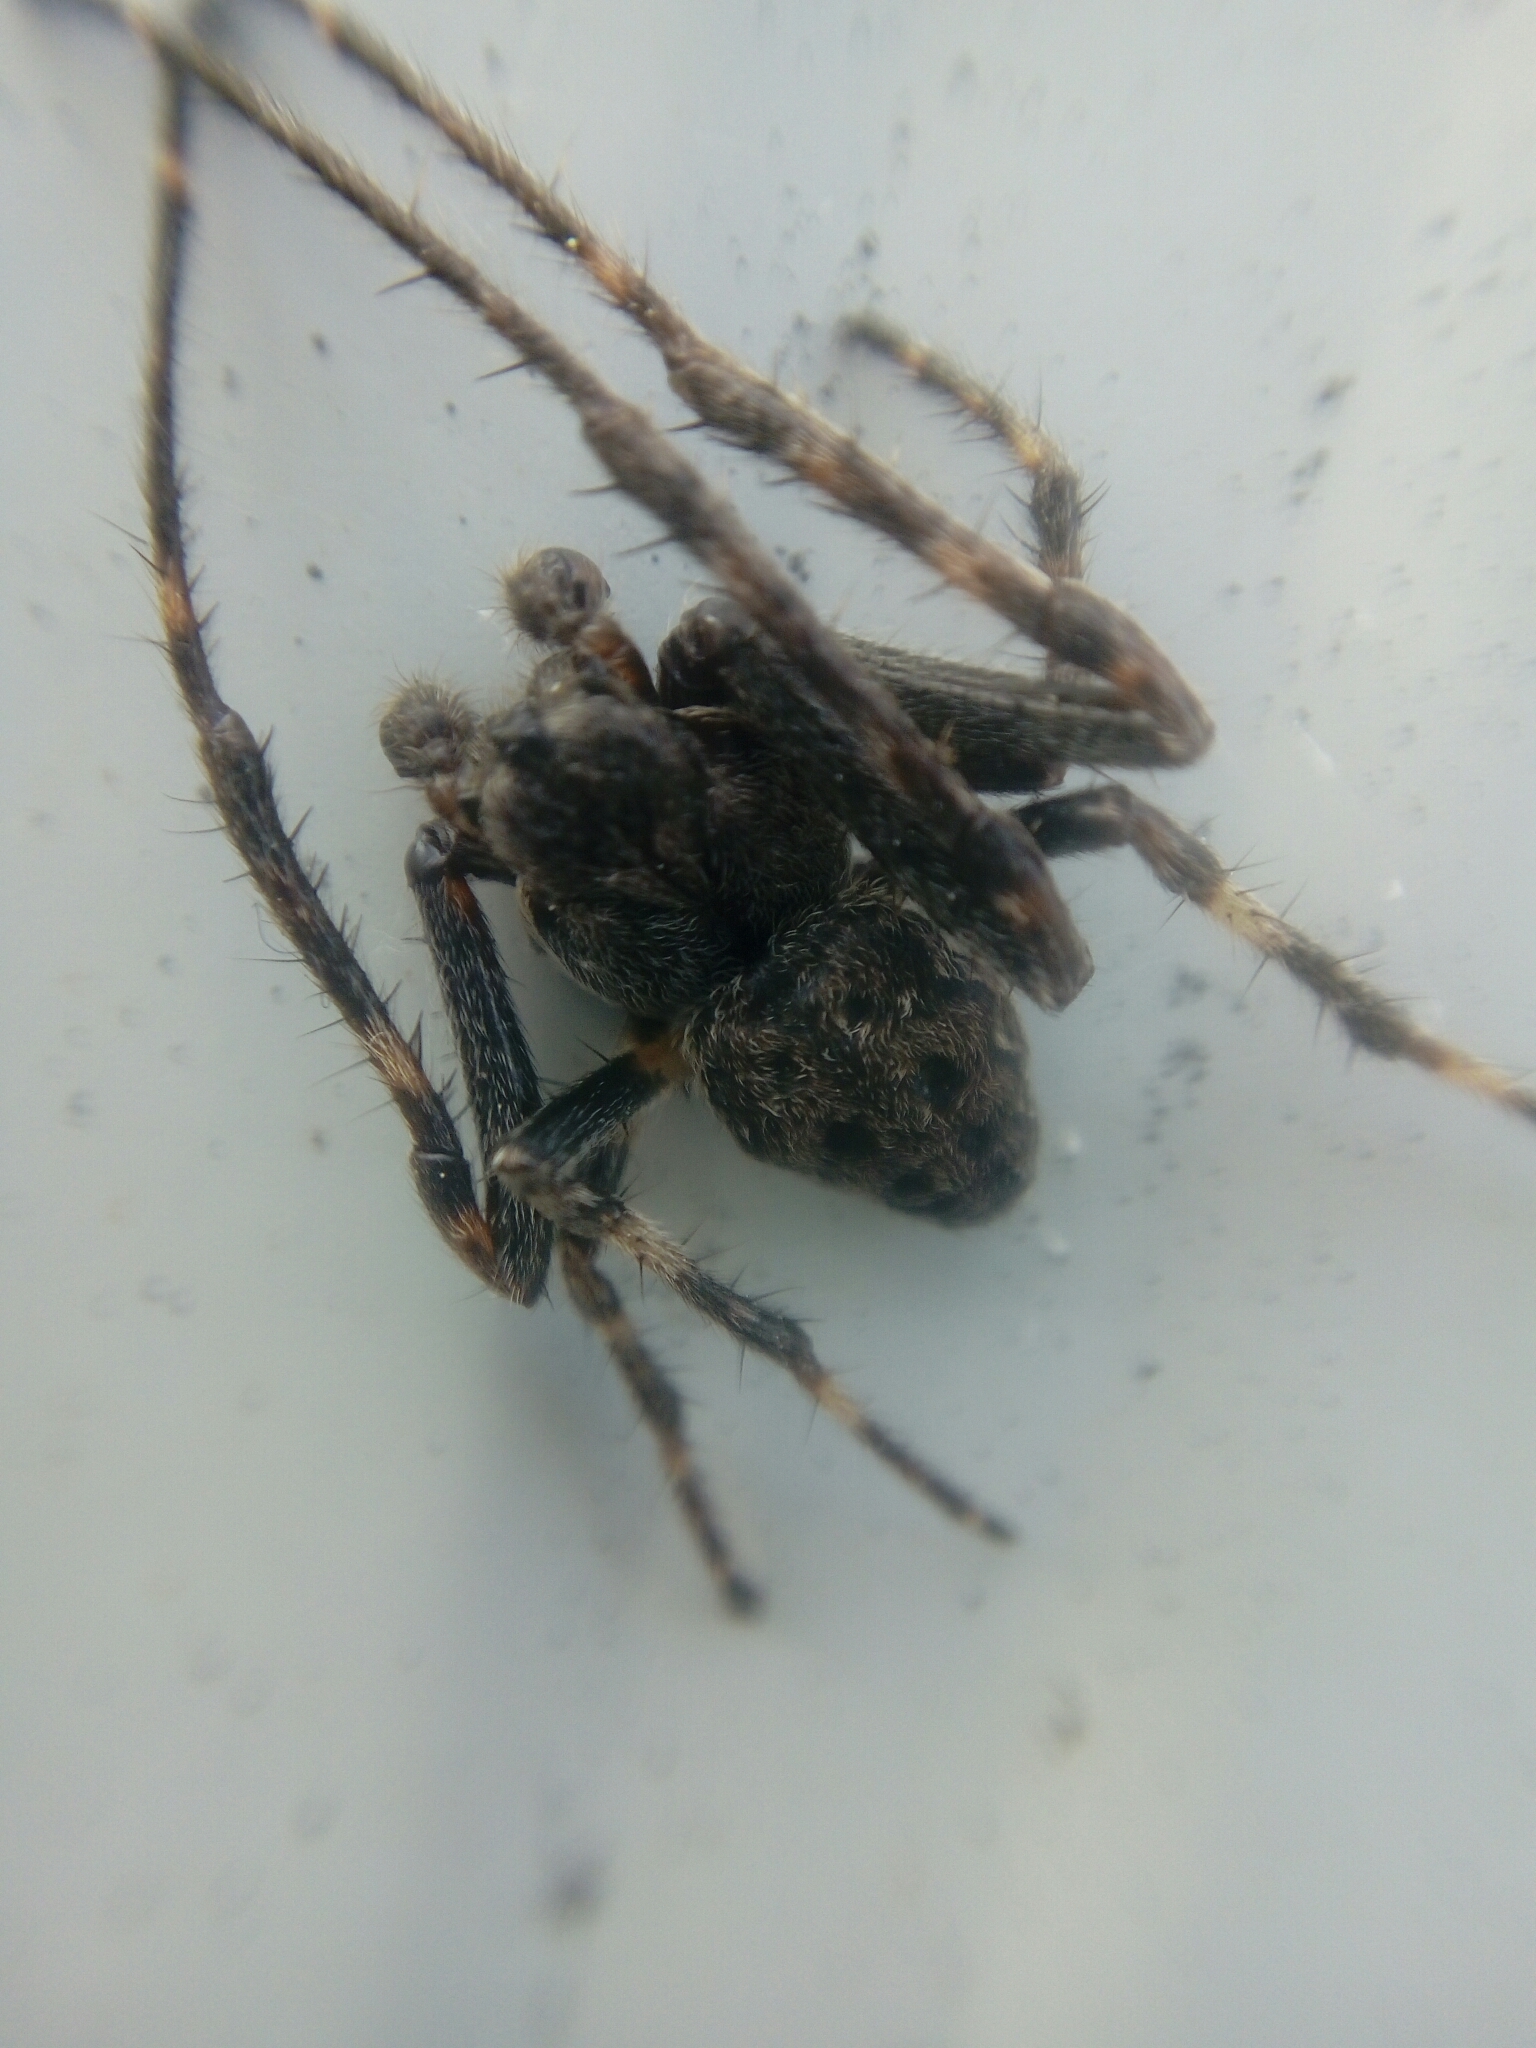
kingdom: Animalia
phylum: Arthropoda
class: Arachnida
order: Araneae
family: Araneidae
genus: Nuctenea
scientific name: Nuctenea umbratica
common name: Toad spider
